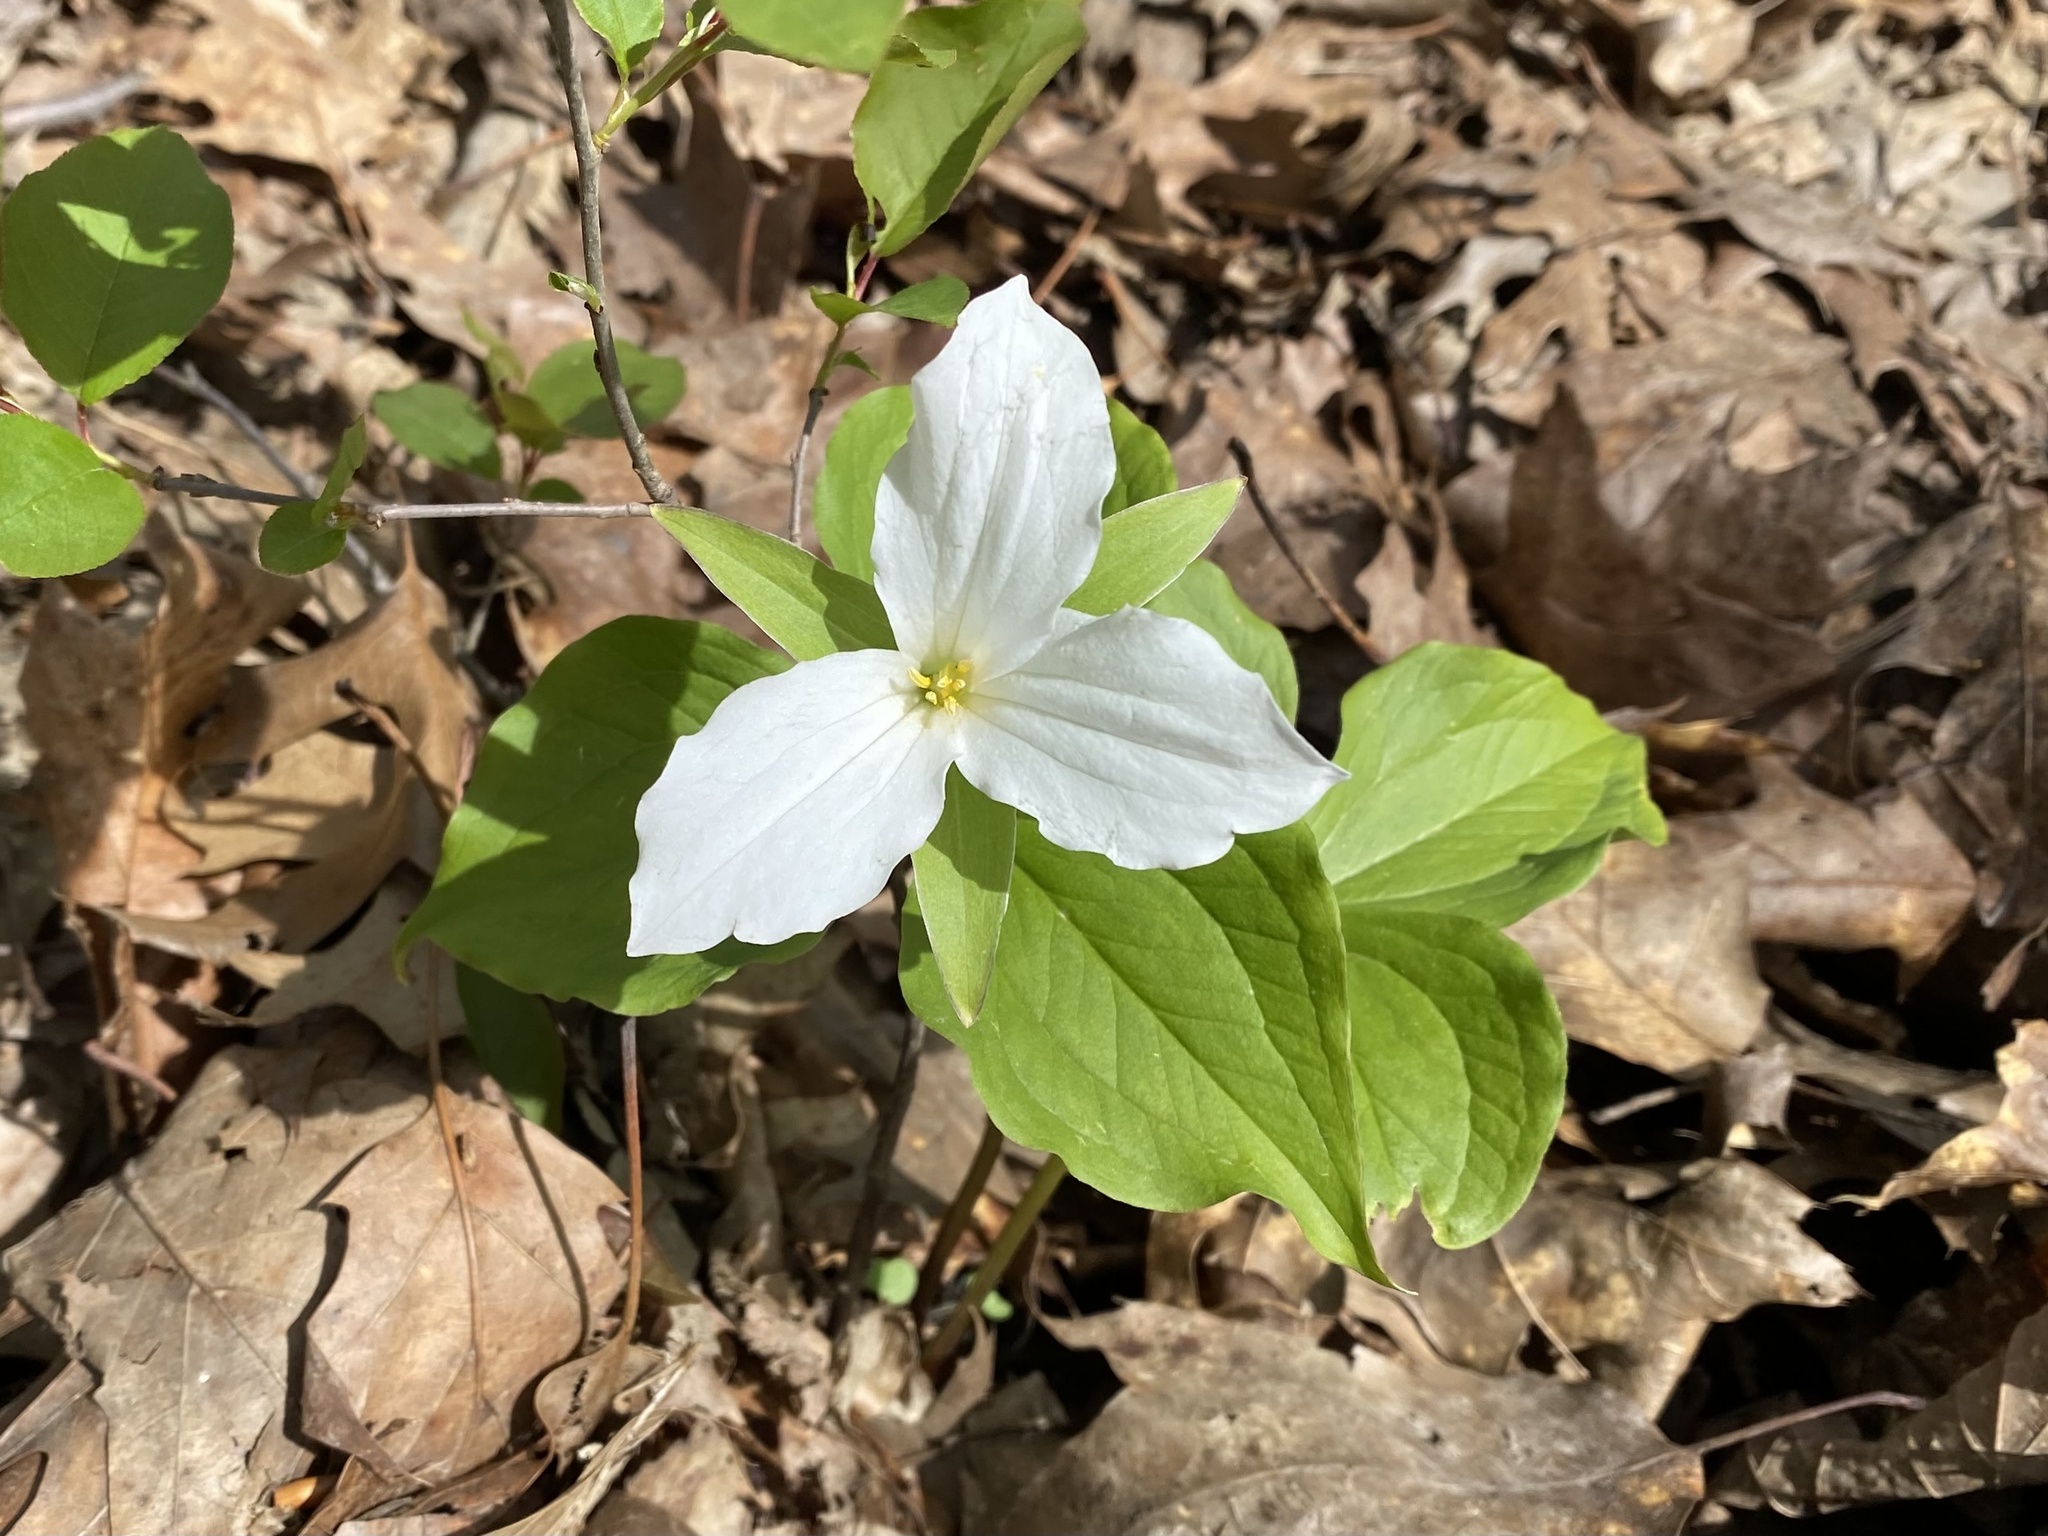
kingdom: Plantae
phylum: Tracheophyta
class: Liliopsida
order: Liliales
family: Melanthiaceae
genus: Trillium
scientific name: Trillium grandiflorum
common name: Great white trillium
